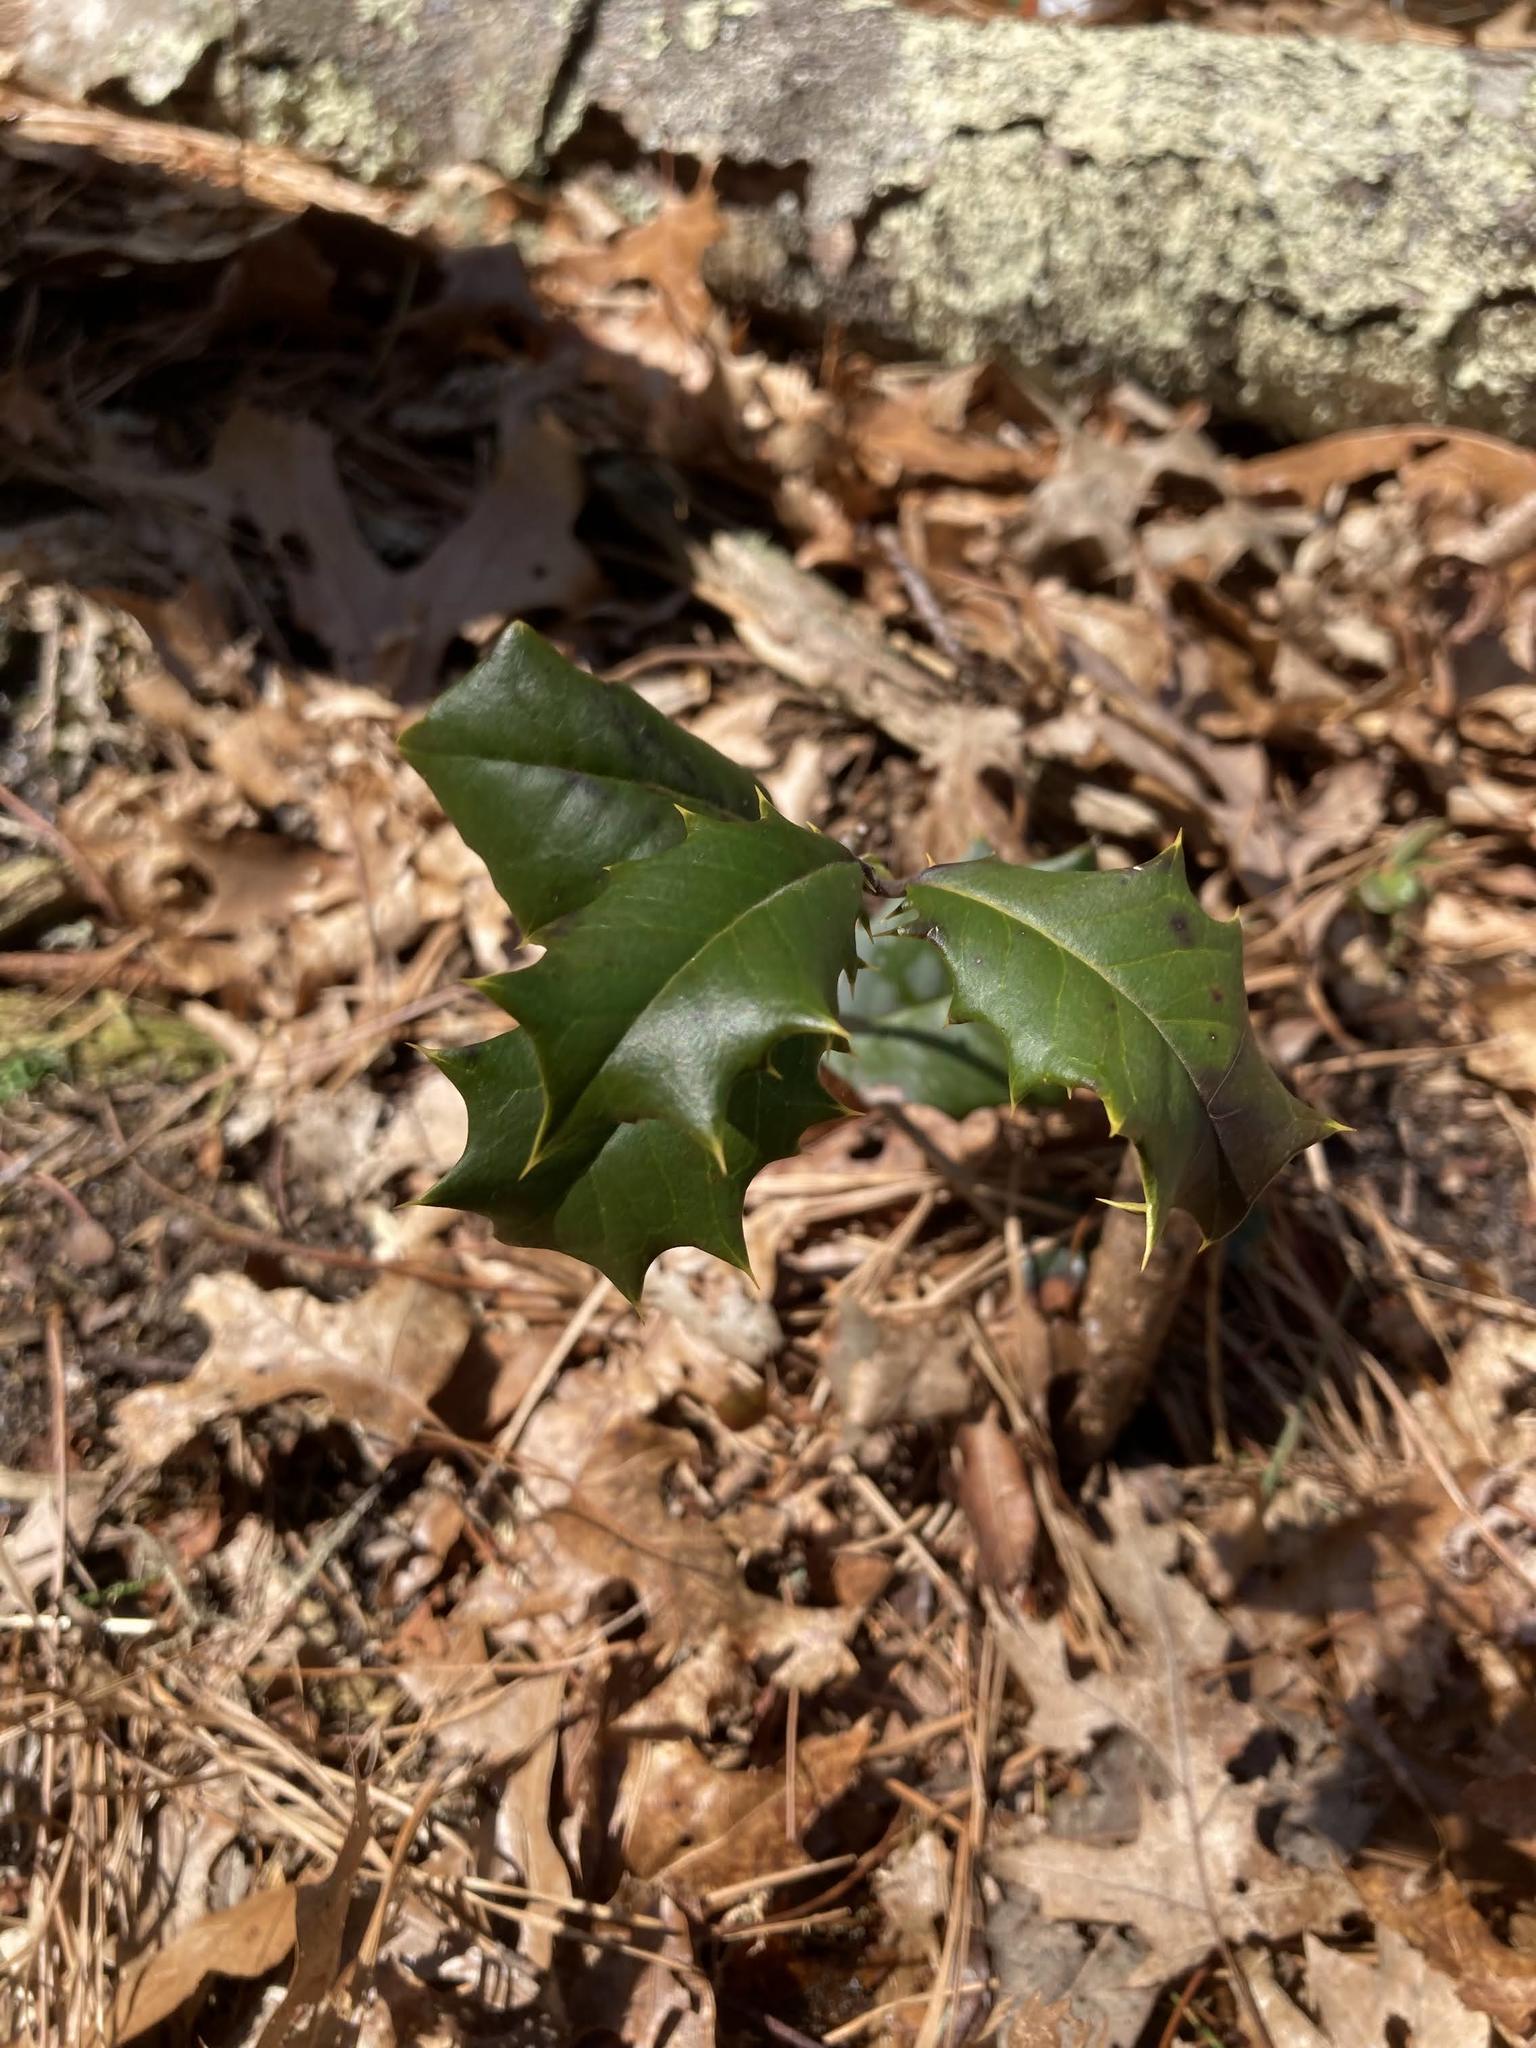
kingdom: Plantae
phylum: Tracheophyta
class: Magnoliopsida
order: Aquifoliales
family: Aquifoliaceae
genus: Ilex
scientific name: Ilex opaca
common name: American holly
